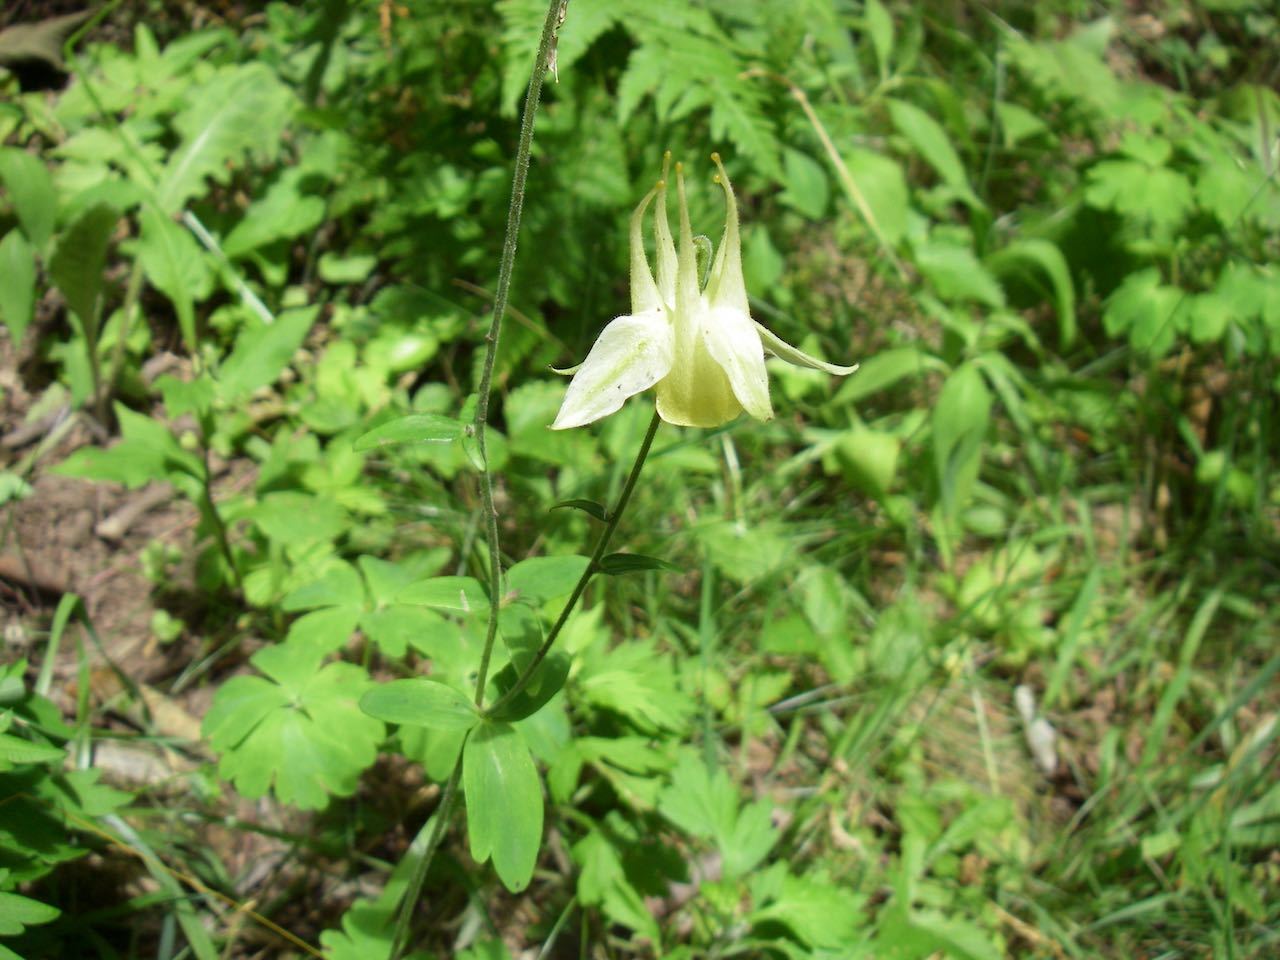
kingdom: Plantae
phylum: Tracheophyta
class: Magnoliopsida
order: Ranunculales
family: Ranunculaceae
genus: Aquilegia
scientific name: Aquilegia buergerana
